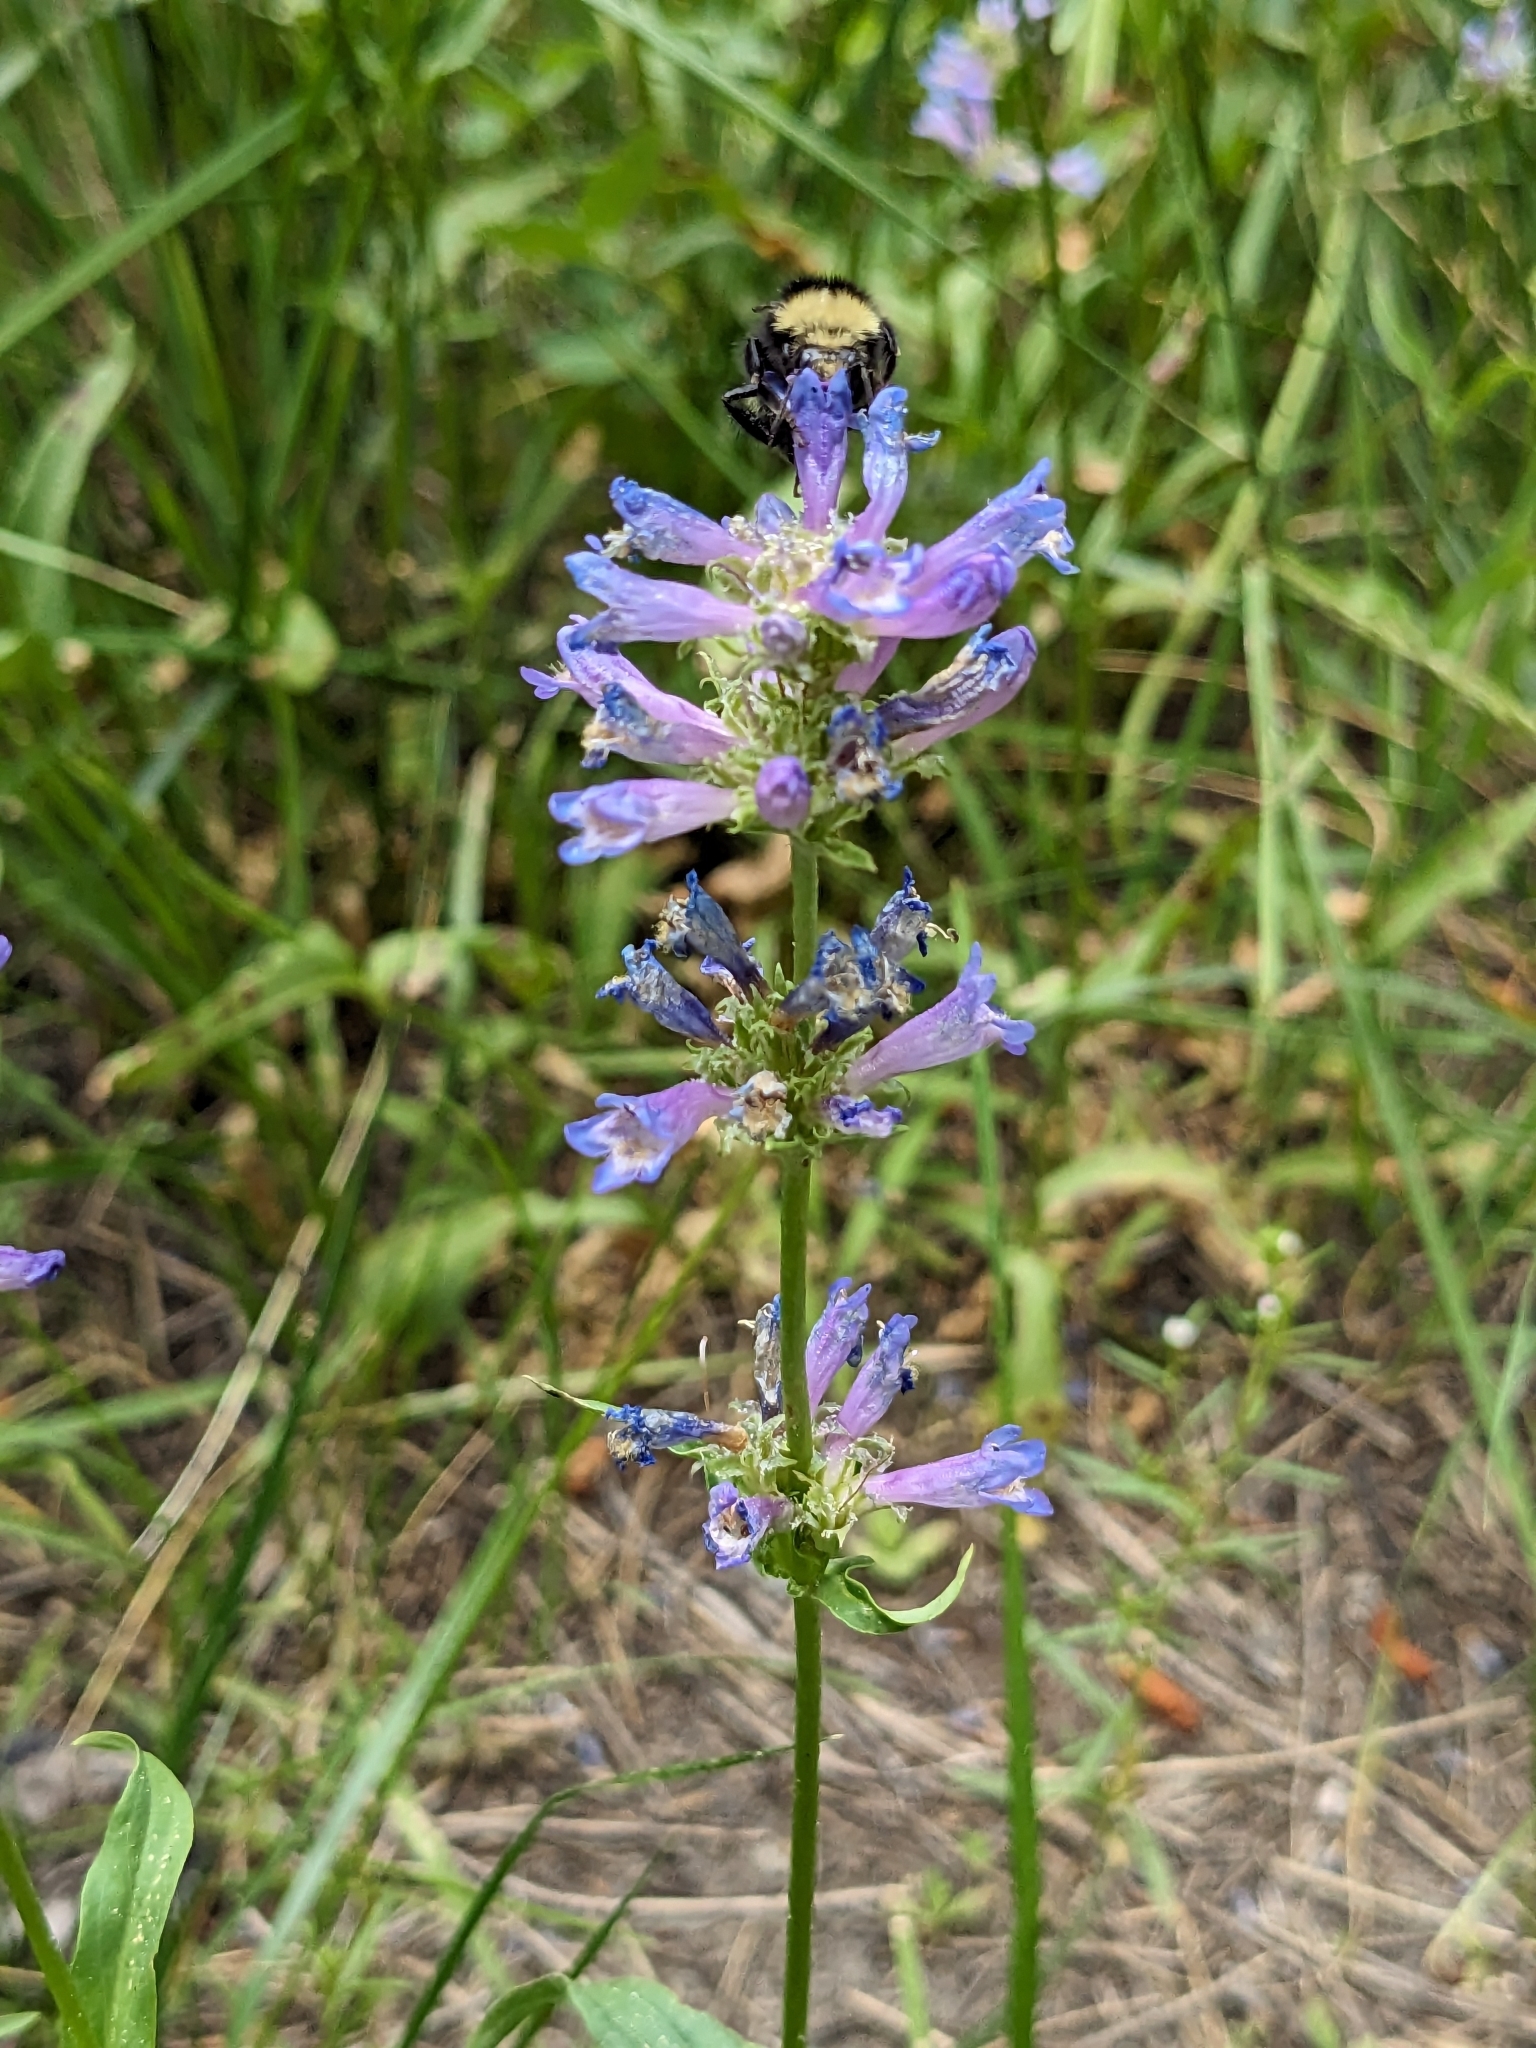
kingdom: Plantae
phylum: Tracheophyta
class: Magnoliopsida
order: Lamiales
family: Plantaginaceae
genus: Penstemon
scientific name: Penstemon rydbergii
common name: Rydberg's beardtongue
